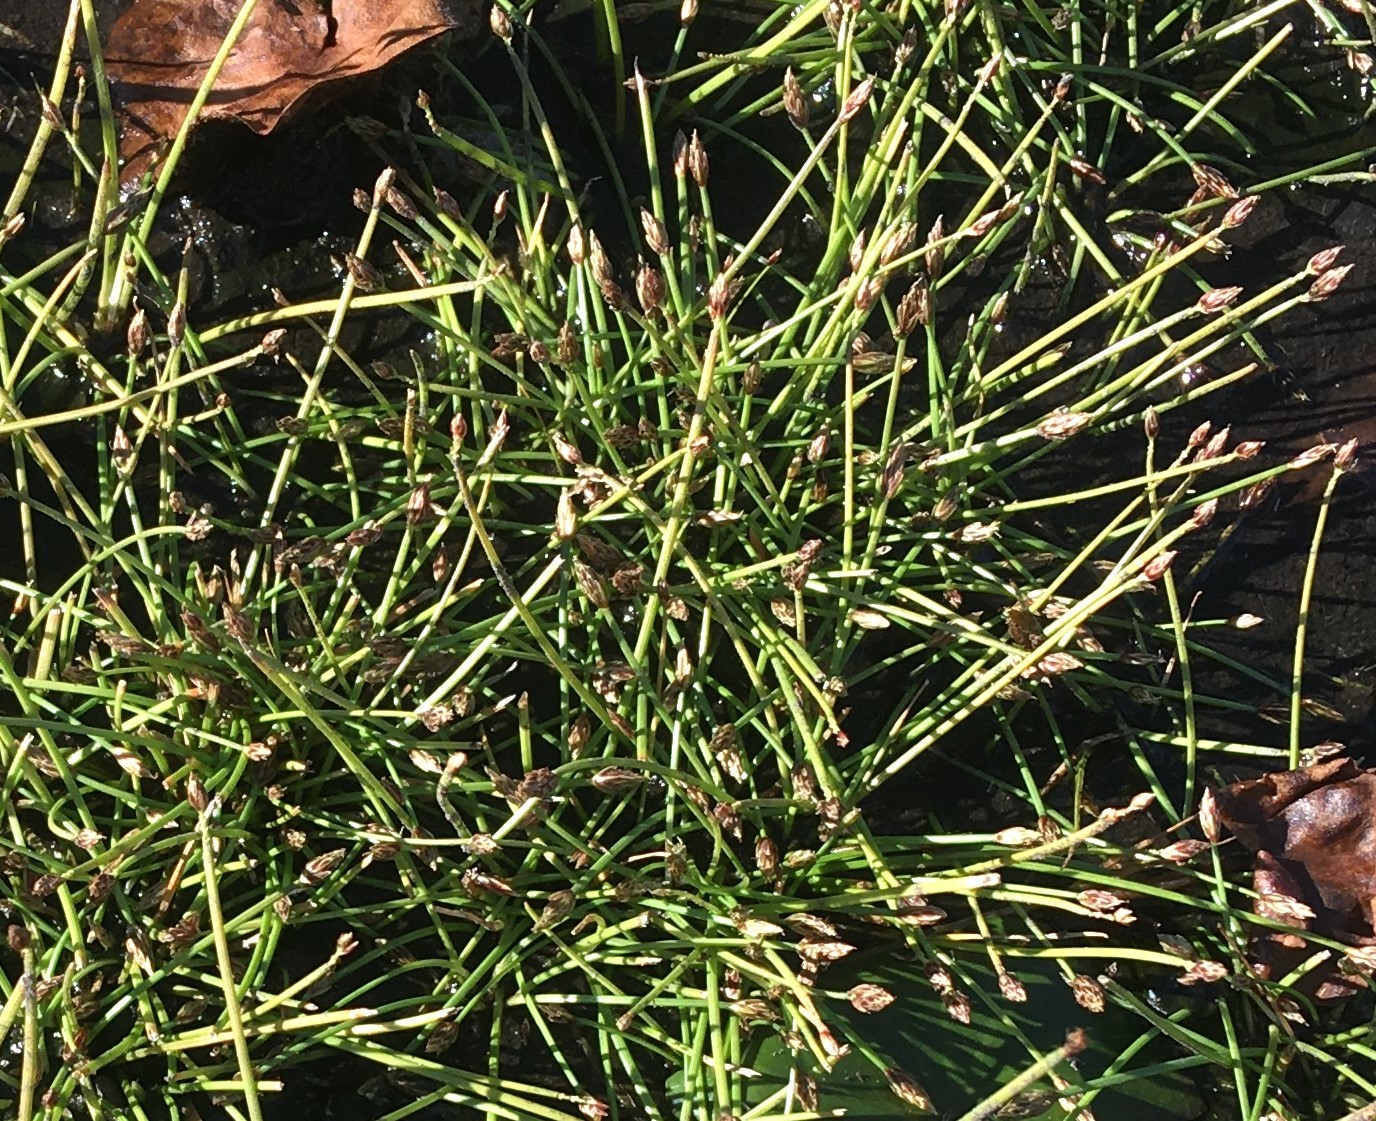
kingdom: Plantae
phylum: Tracheophyta
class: Liliopsida
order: Poales
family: Cyperaceae
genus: Eleocharis
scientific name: Eleocharis acicularis
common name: Needle spike-rush
